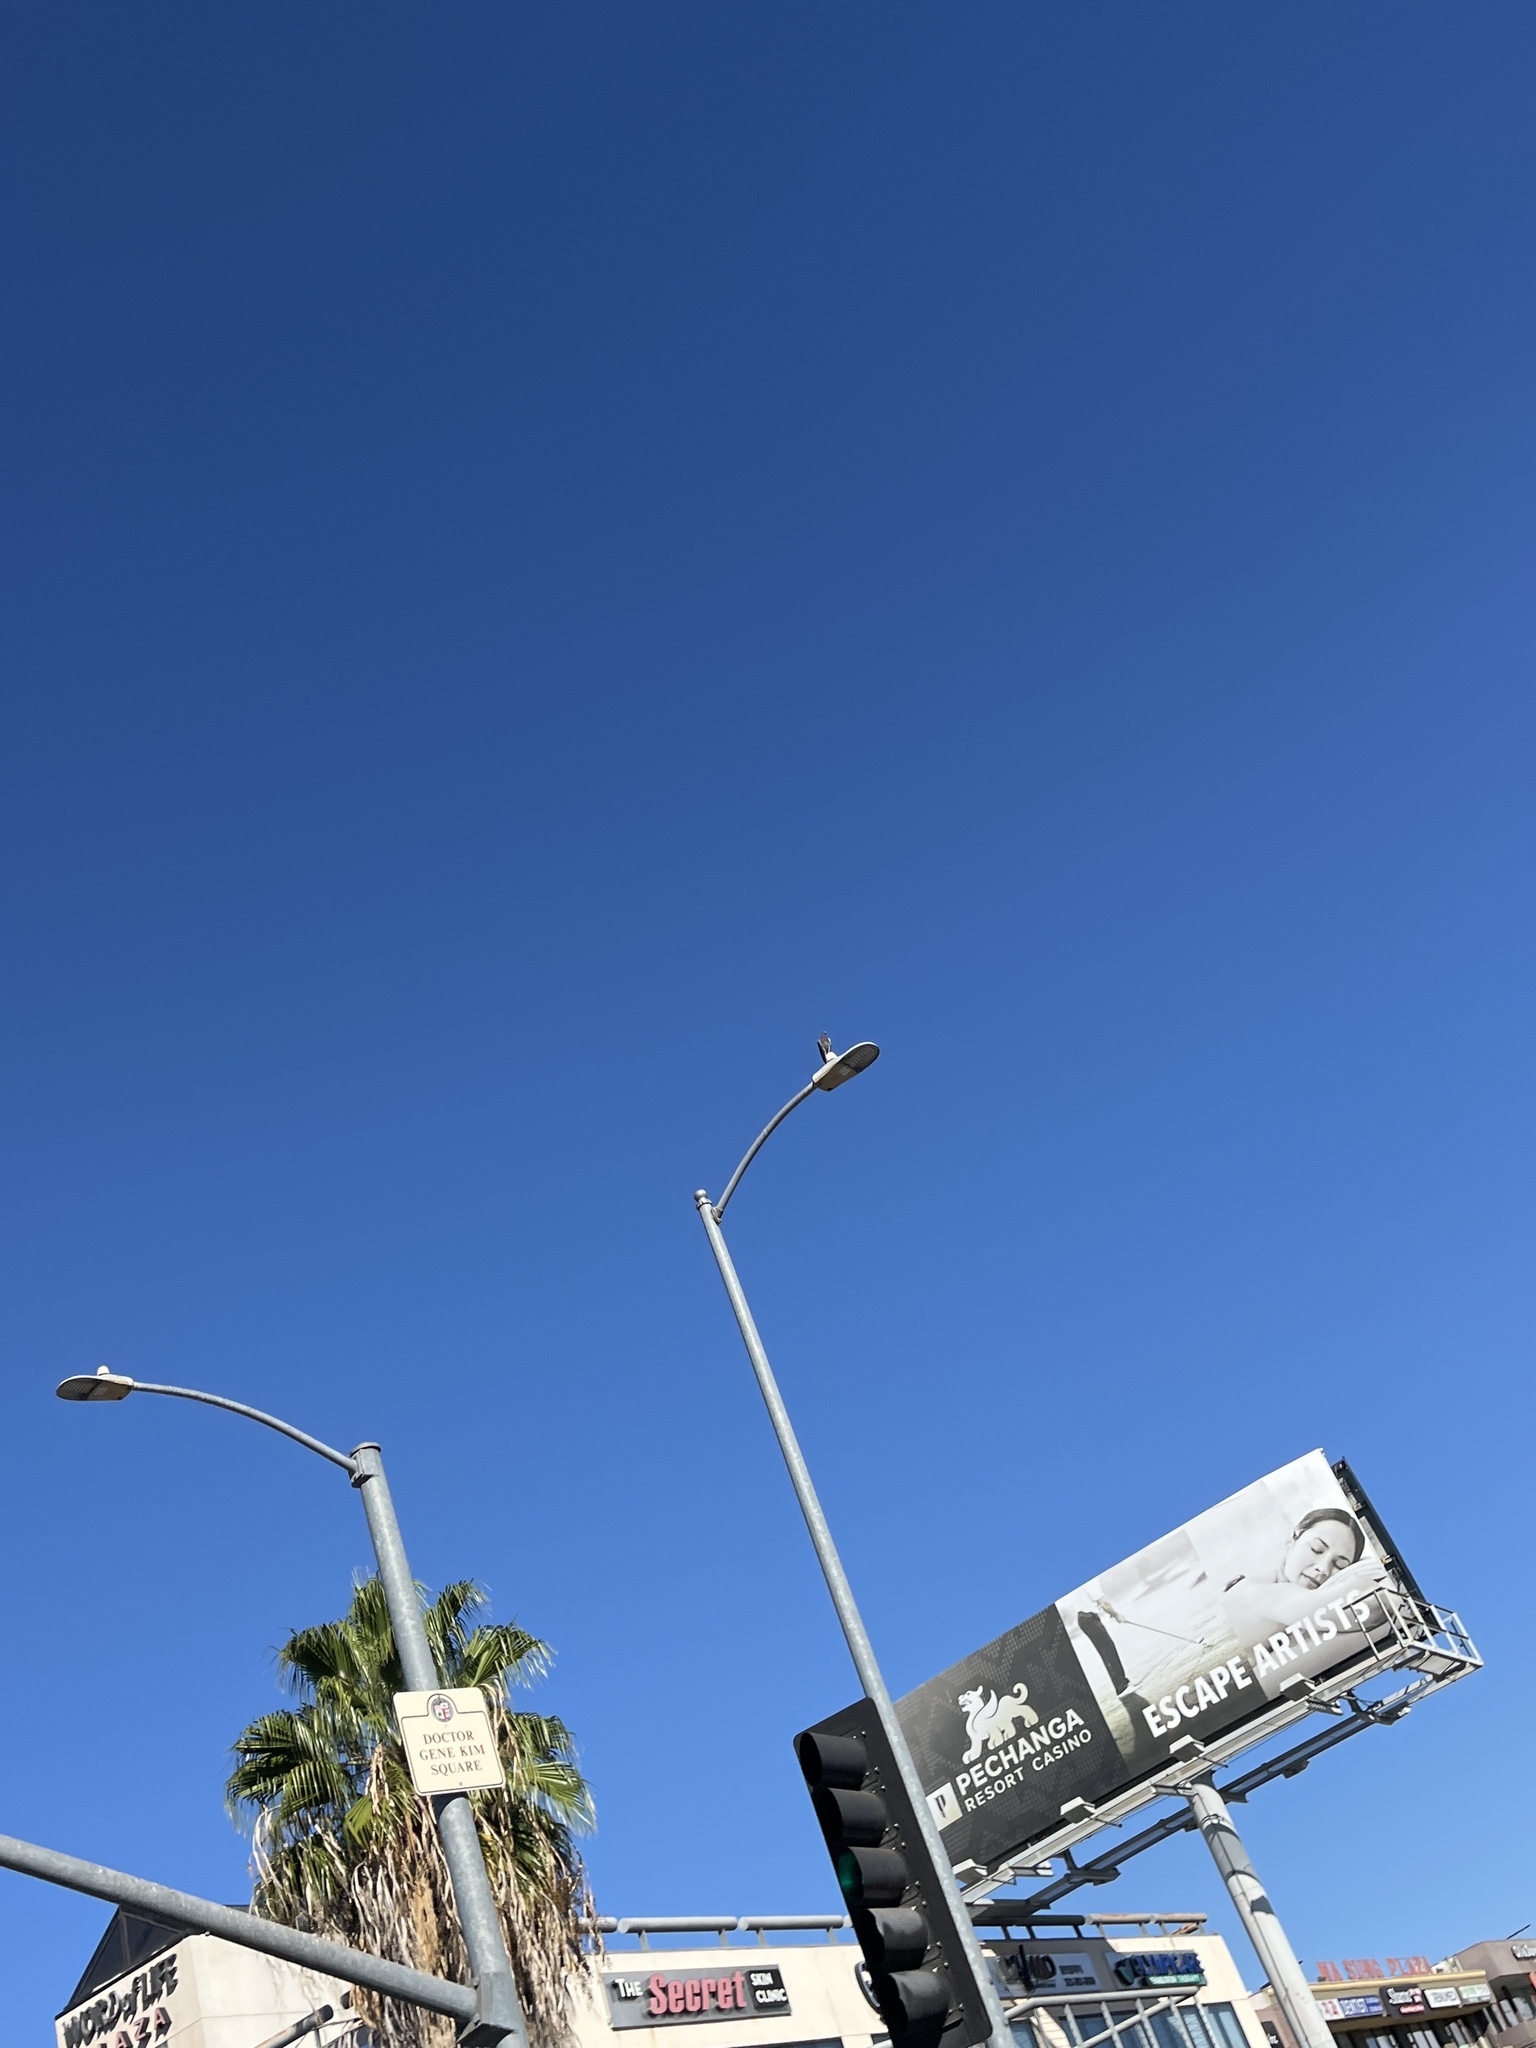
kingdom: Animalia
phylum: Chordata
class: Aves
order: Columbiformes
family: Columbidae
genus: Columba
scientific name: Columba livia
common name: Rock pigeon
